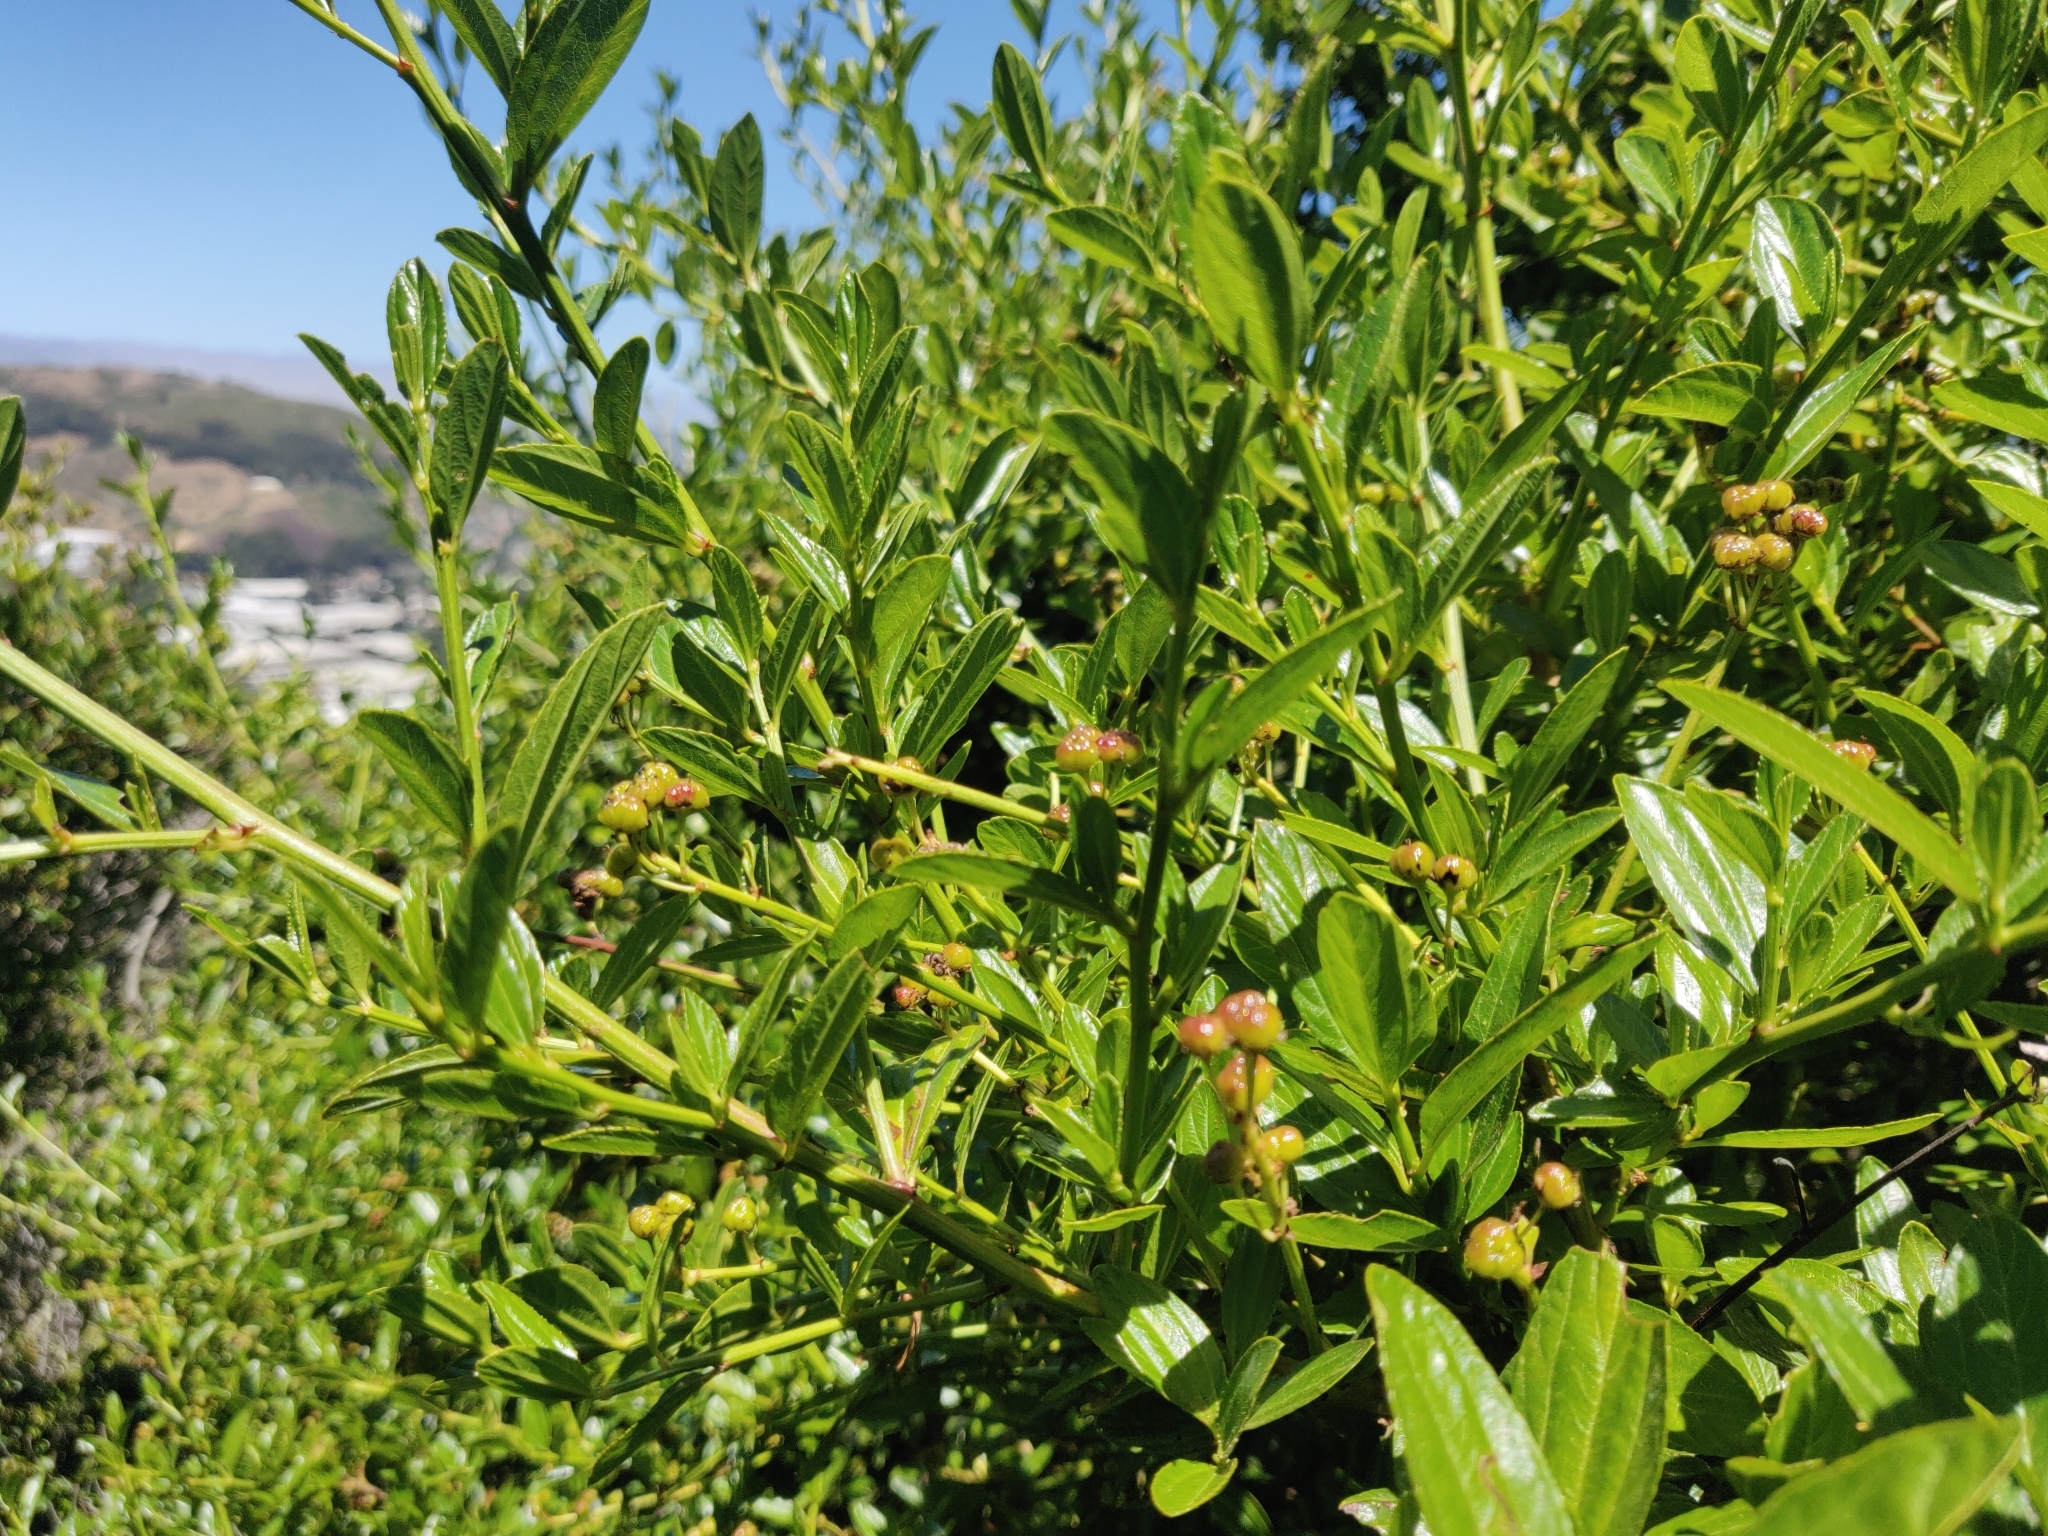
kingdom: Plantae
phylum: Tracheophyta
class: Magnoliopsida
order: Rosales
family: Rhamnaceae
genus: Ceanothus
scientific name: Ceanothus thyrsiflorus
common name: California-lilac
